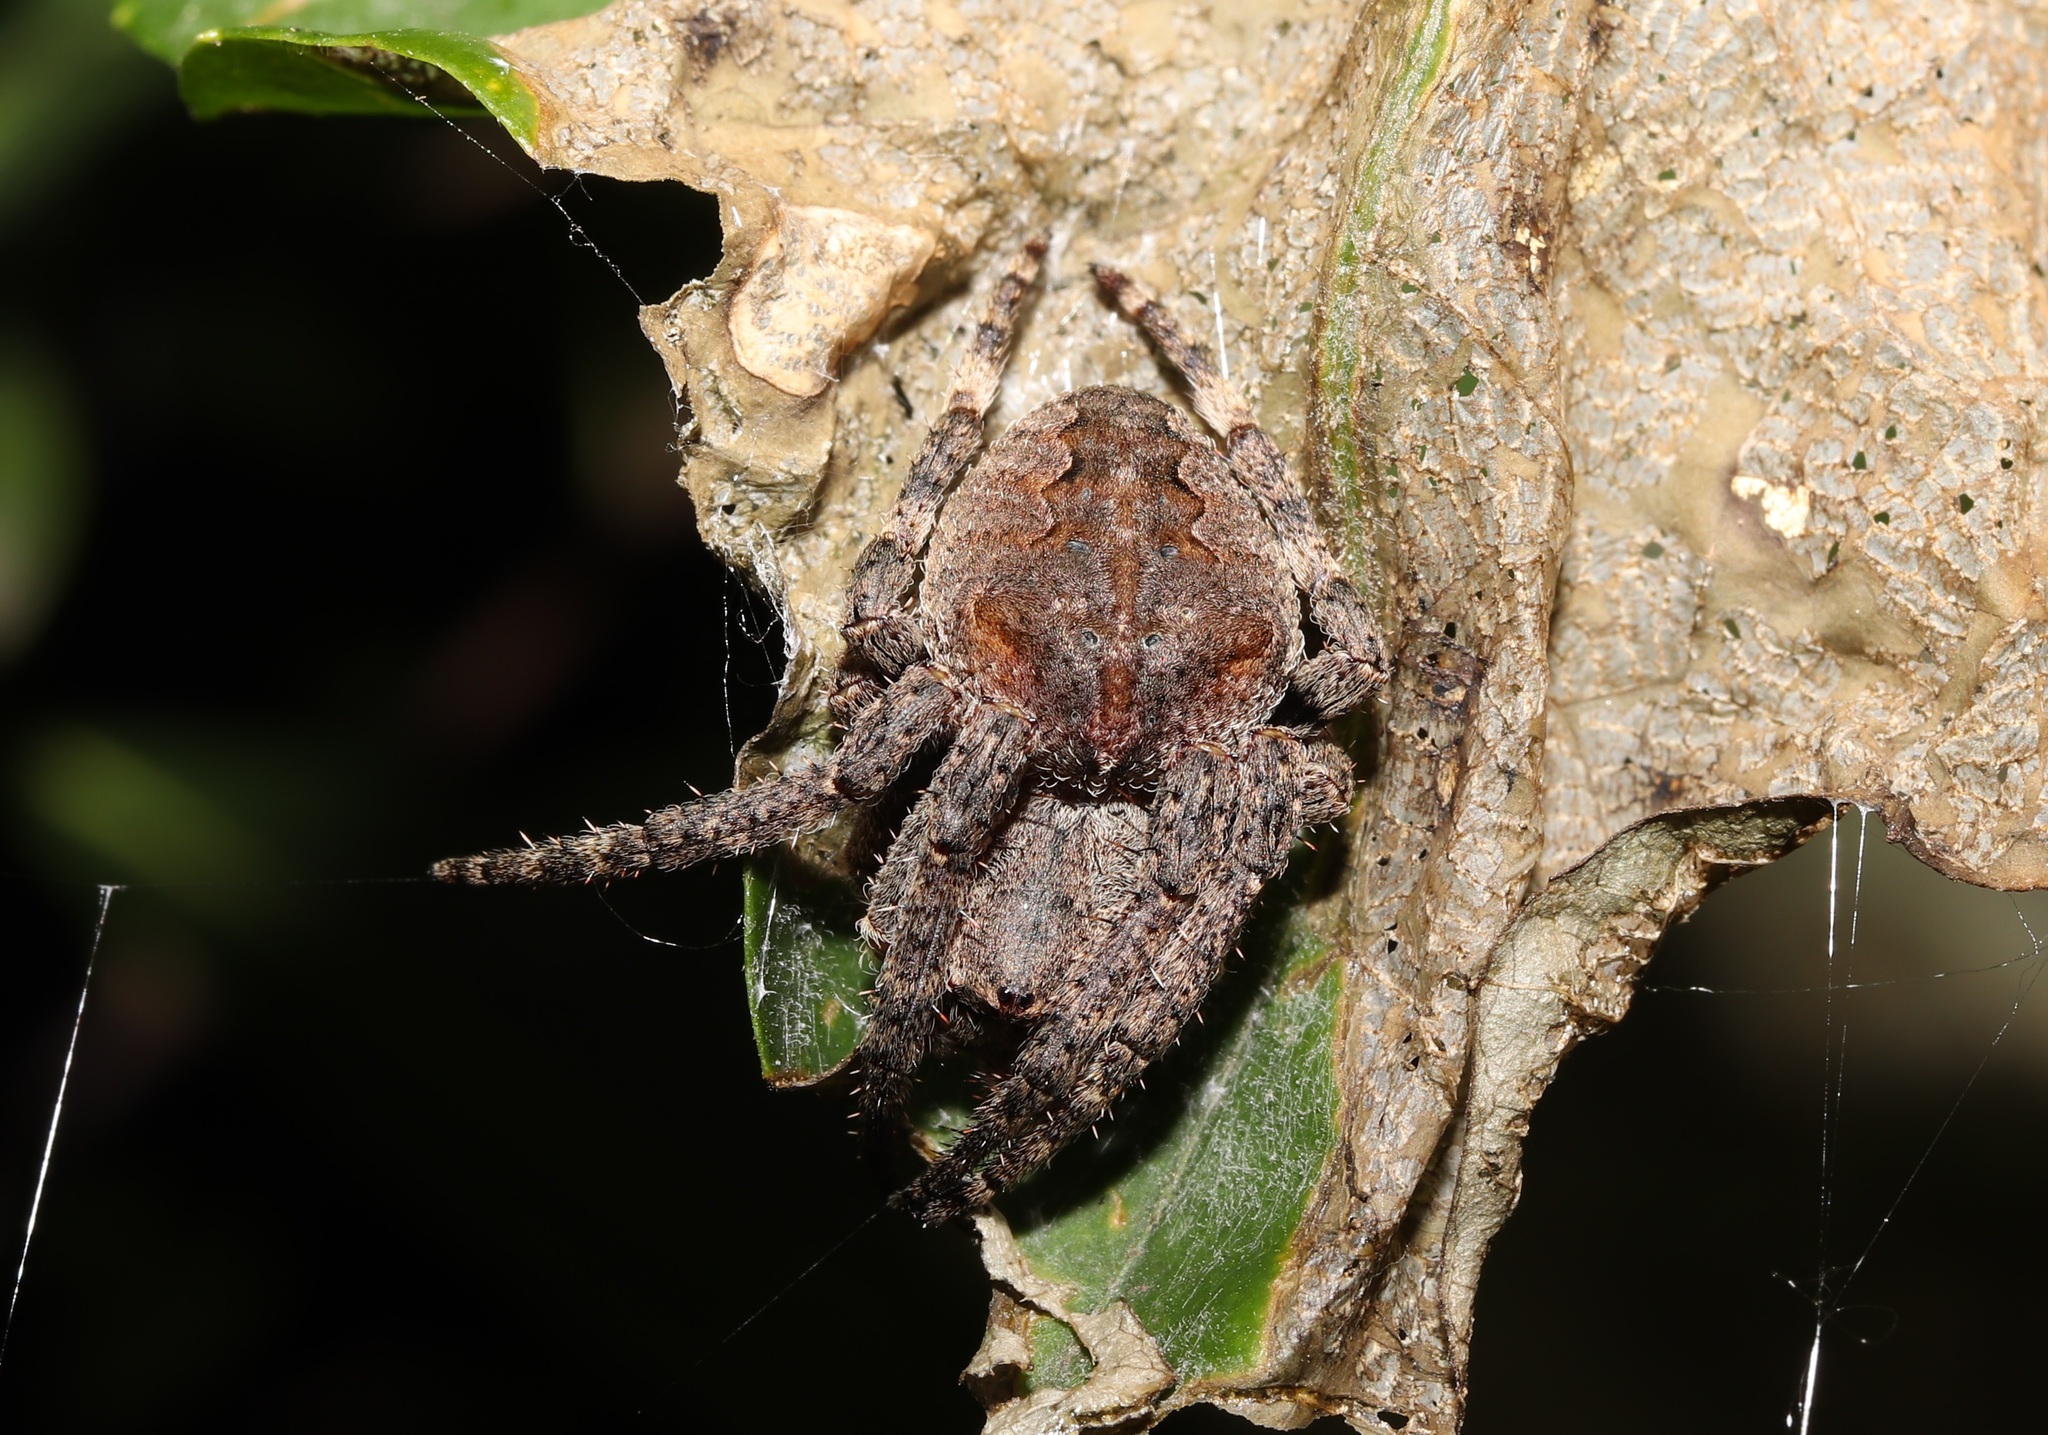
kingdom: Animalia
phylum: Arthropoda
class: Arachnida
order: Araneae
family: Araneidae
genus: Araneus
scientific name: Araneus ventricosus
